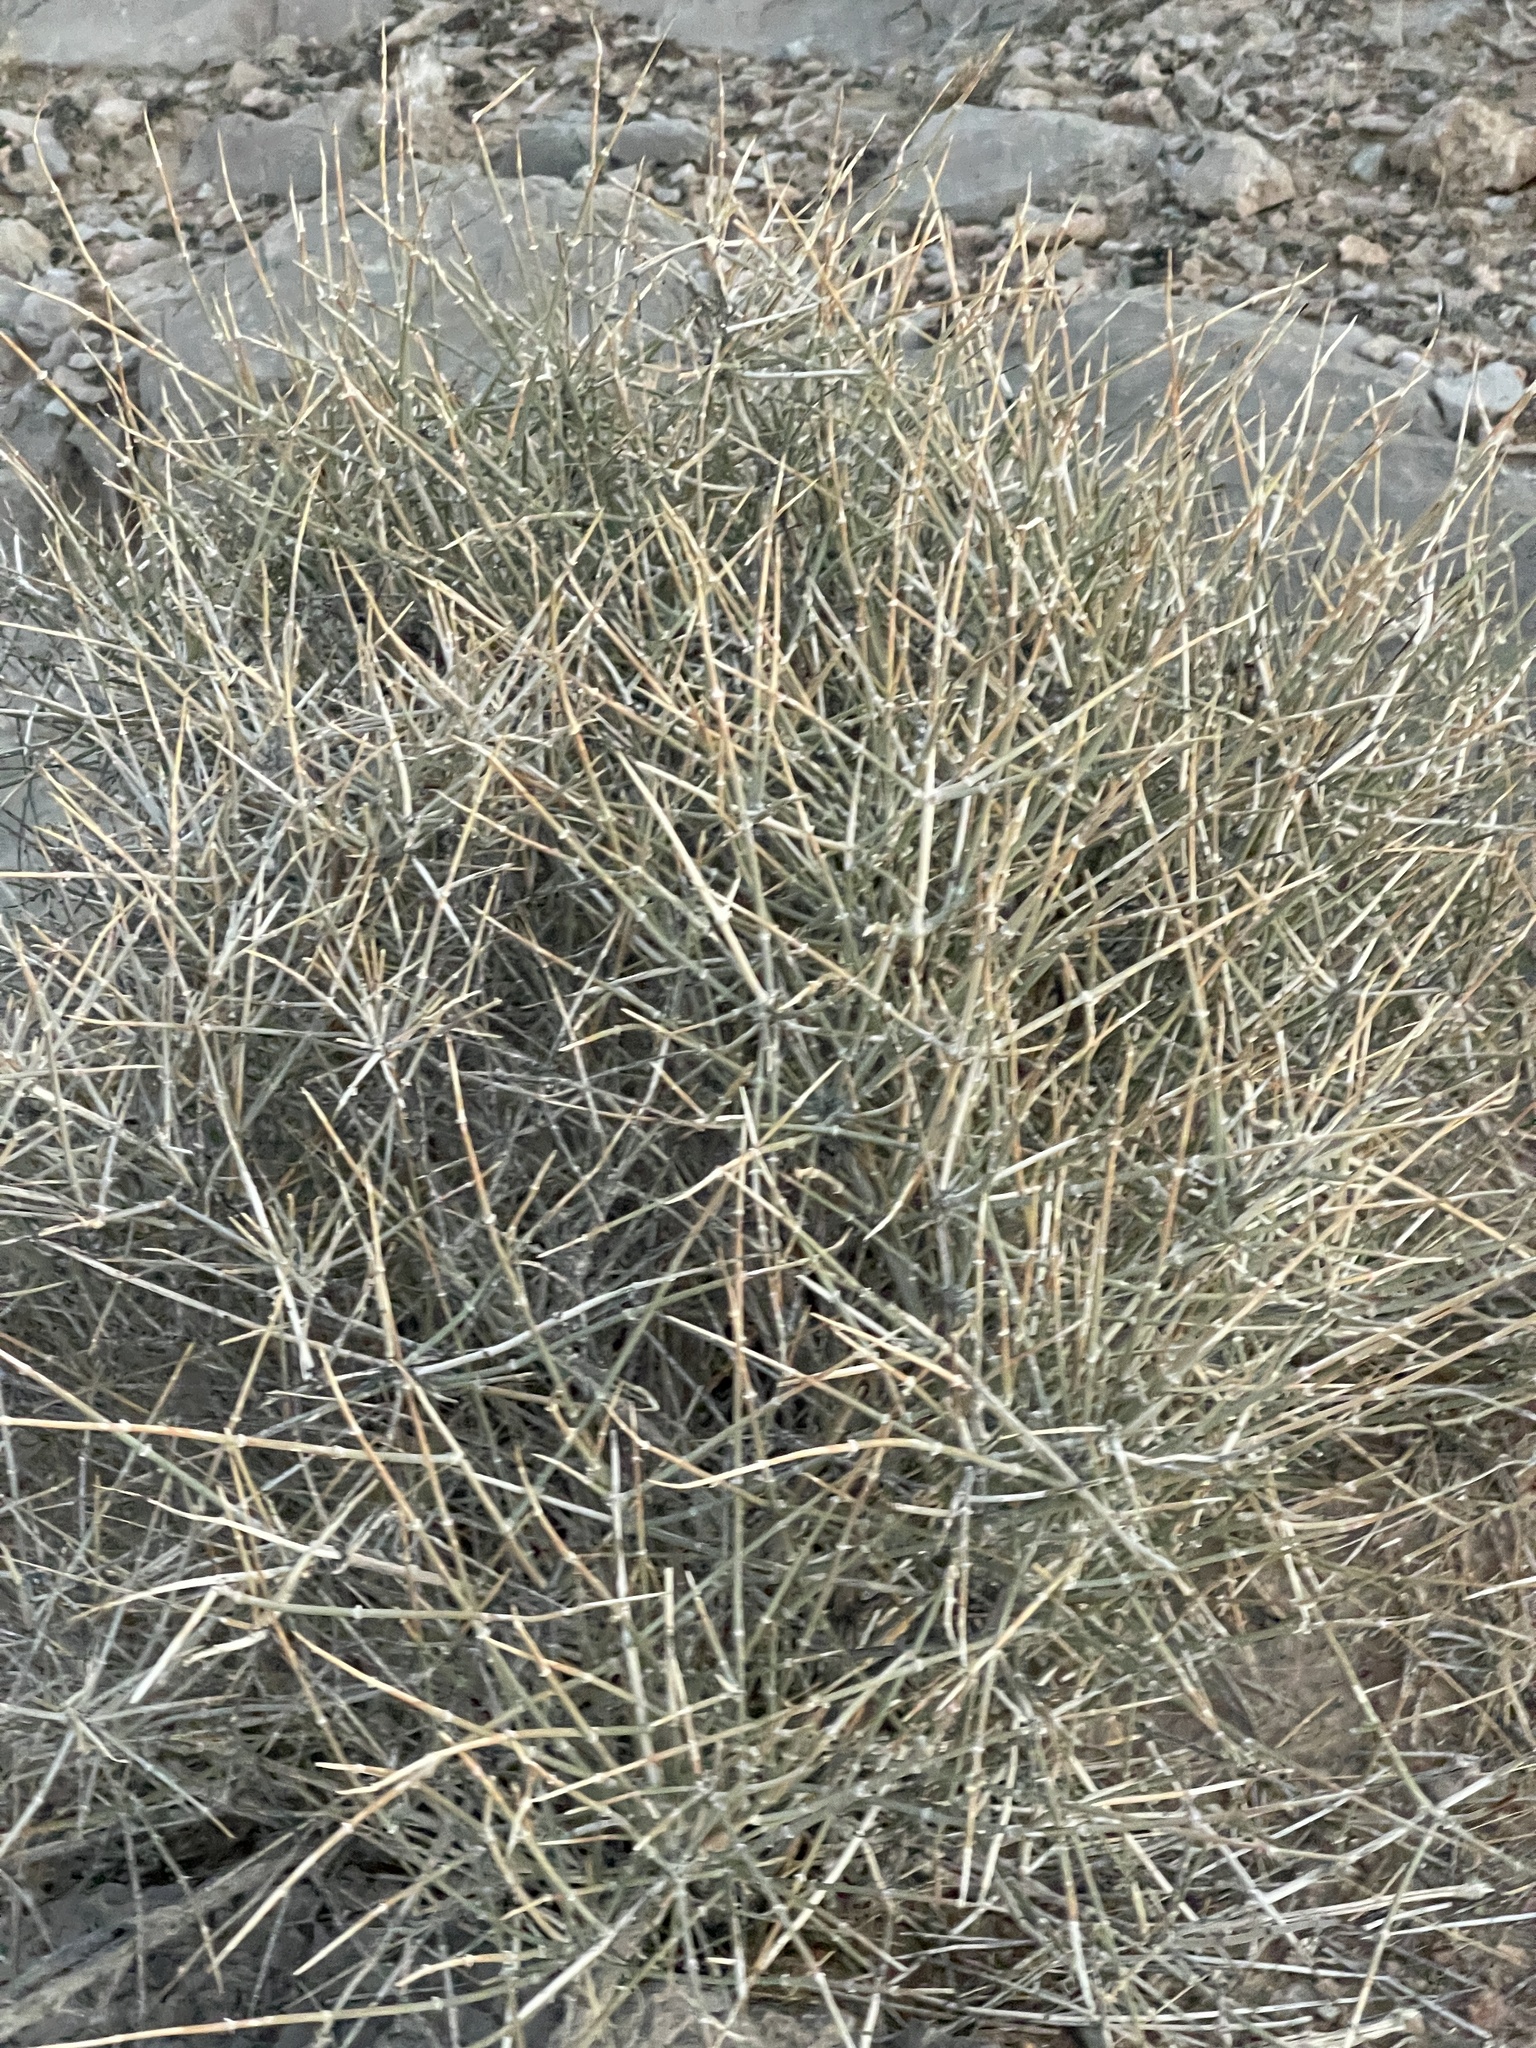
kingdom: Plantae
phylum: Tracheophyta
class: Gnetopsida
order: Ephedrales
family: Ephedraceae
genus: Ephedra
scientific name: Ephedra nevadensis
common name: Gray ephedra
